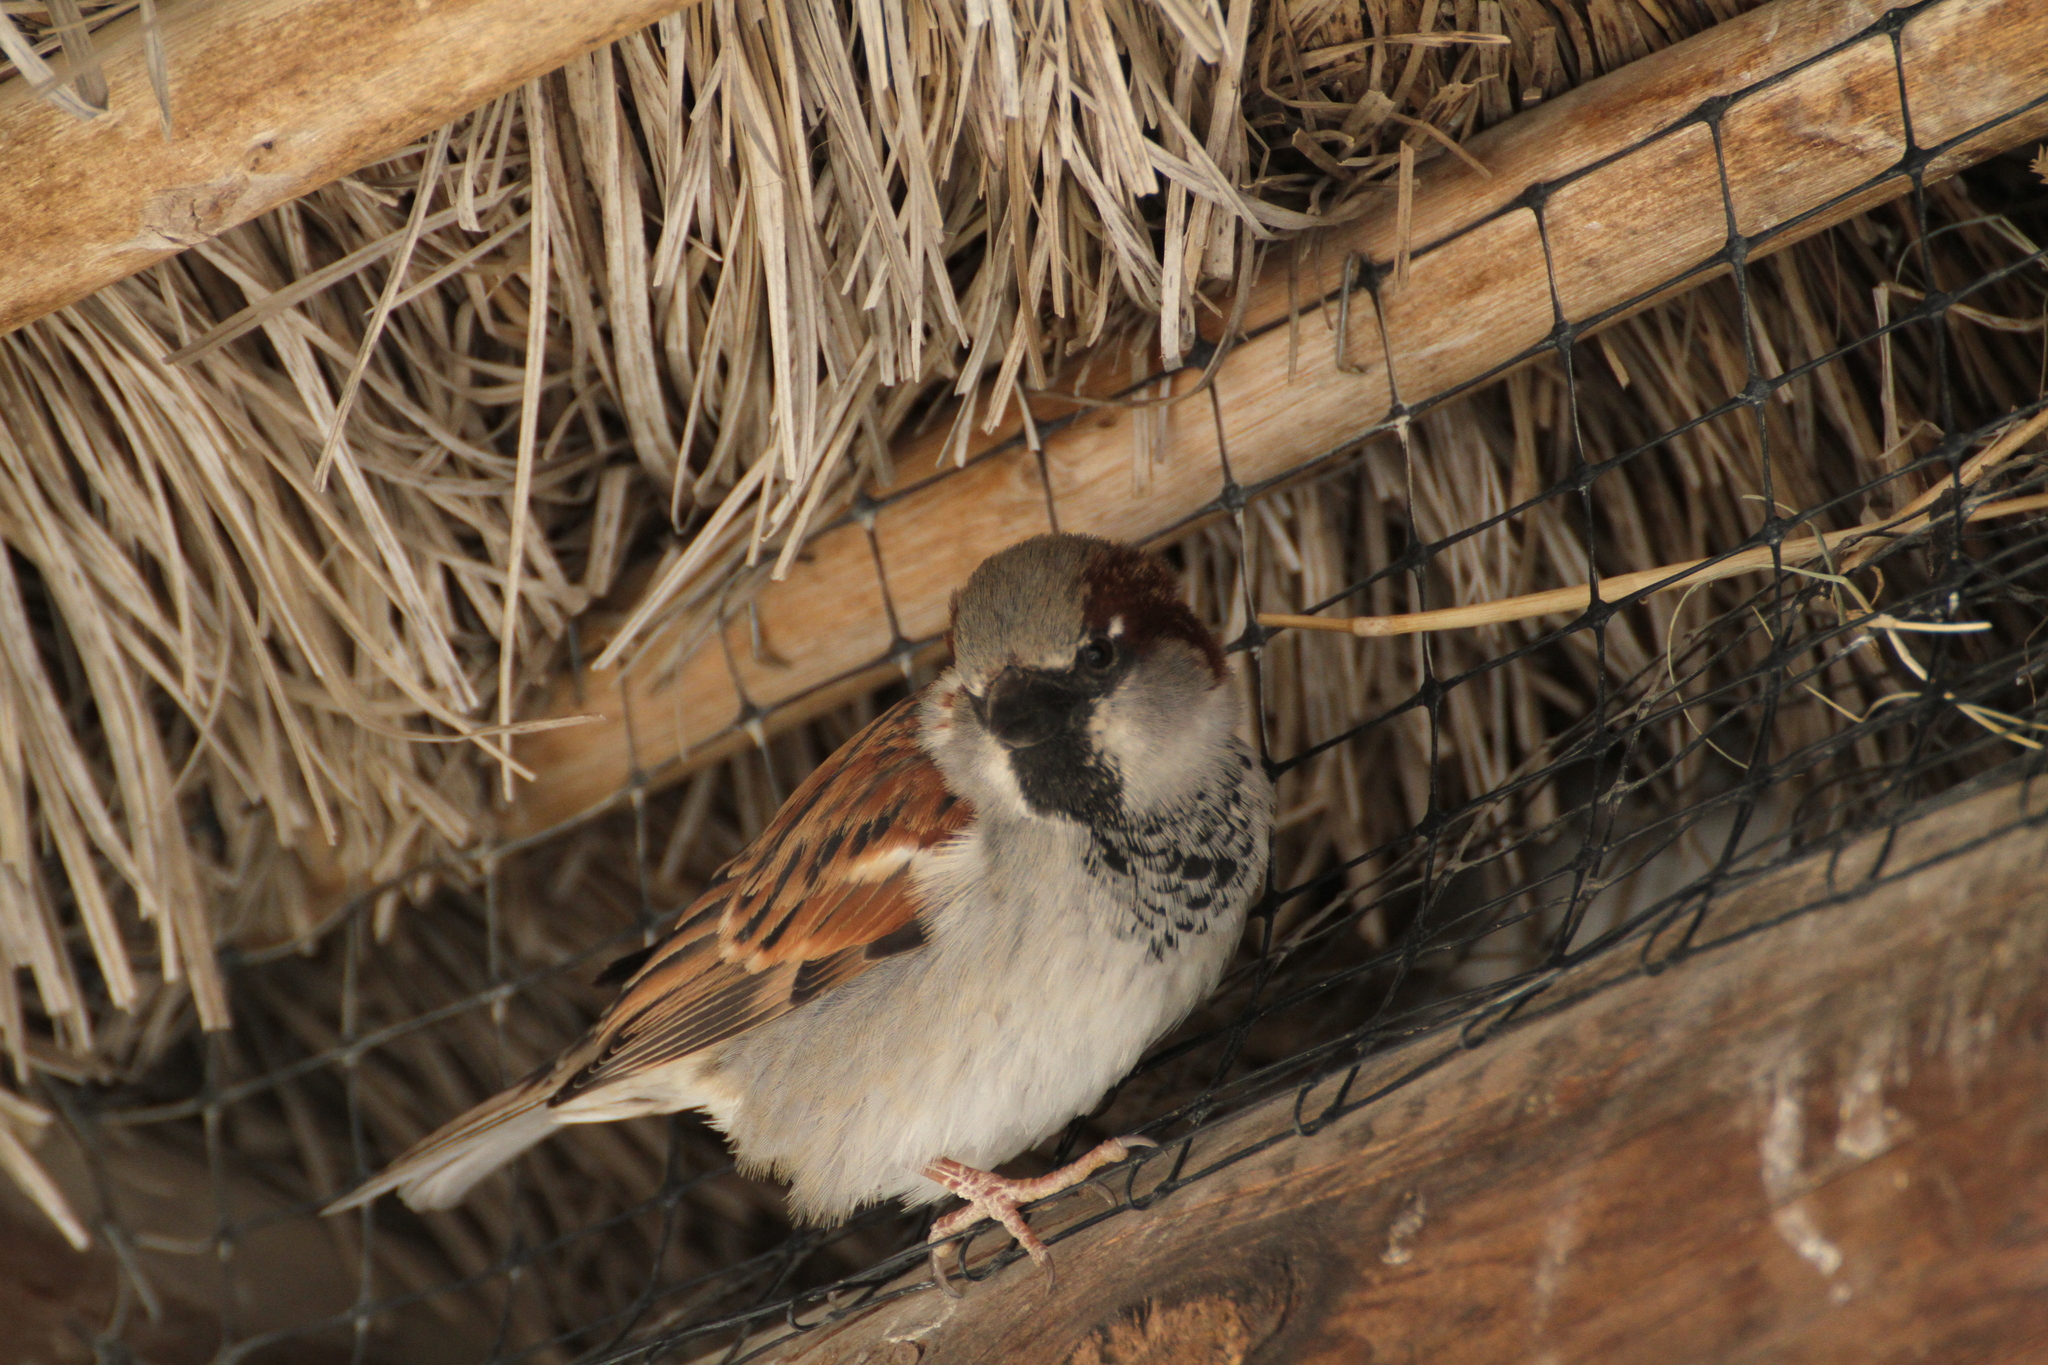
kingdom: Animalia
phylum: Chordata
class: Aves
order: Passeriformes
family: Passeridae
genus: Passer
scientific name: Passer domesticus
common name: House sparrow
